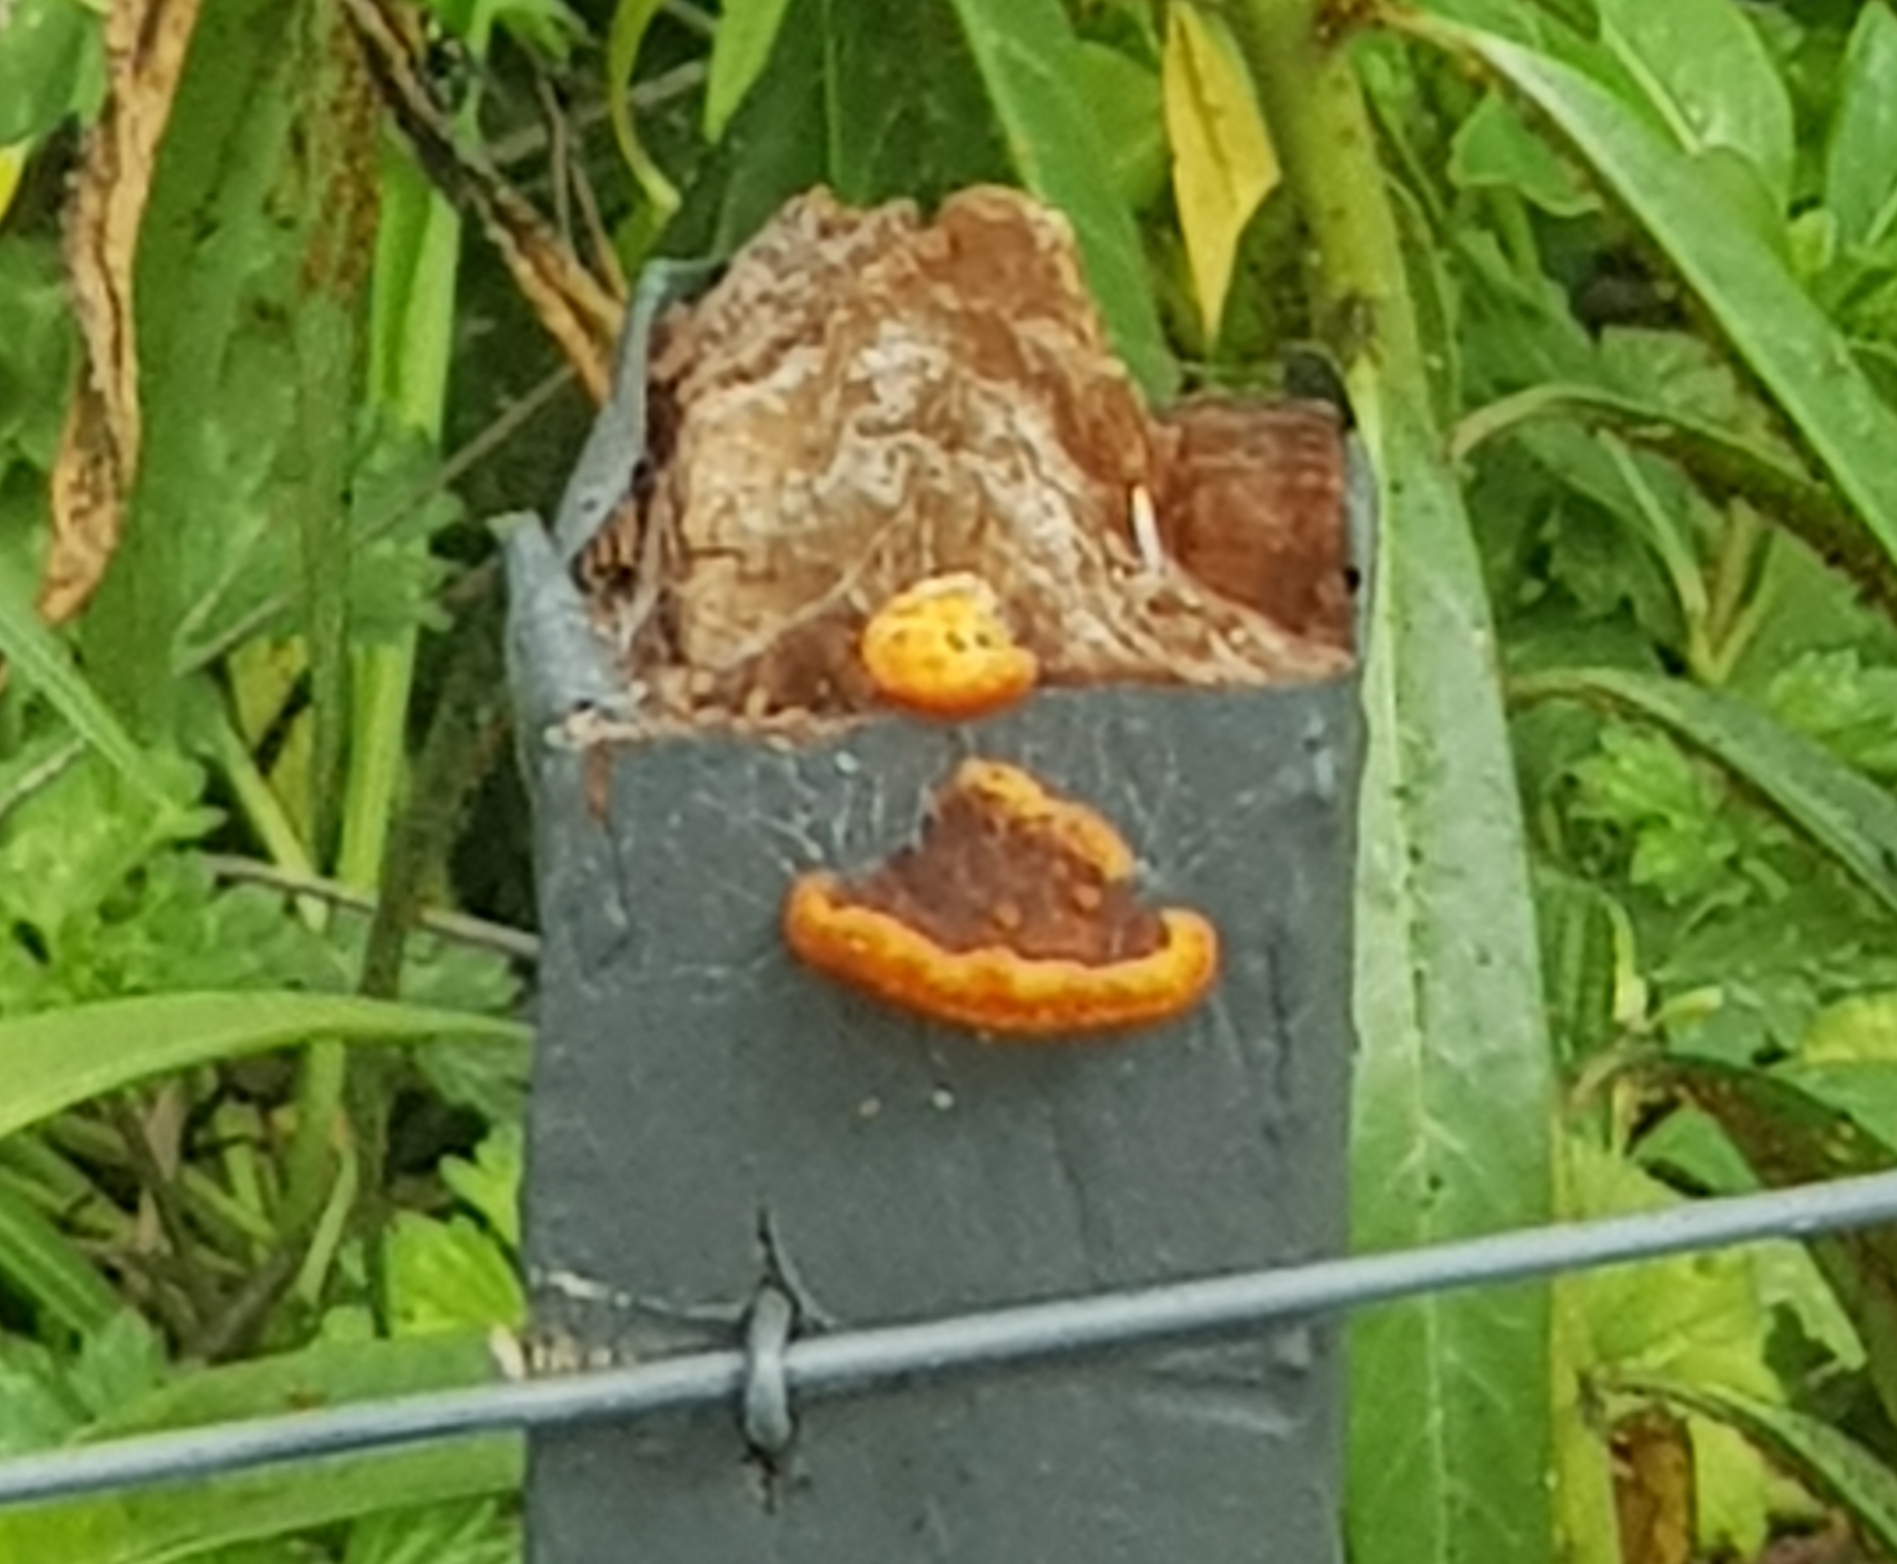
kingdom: Fungi
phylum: Basidiomycota
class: Agaricomycetes
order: Gloeophyllales
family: Gloeophyllaceae
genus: Gloeophyllum
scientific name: Gloeophyllum sepiarium
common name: Conifer mazegill
